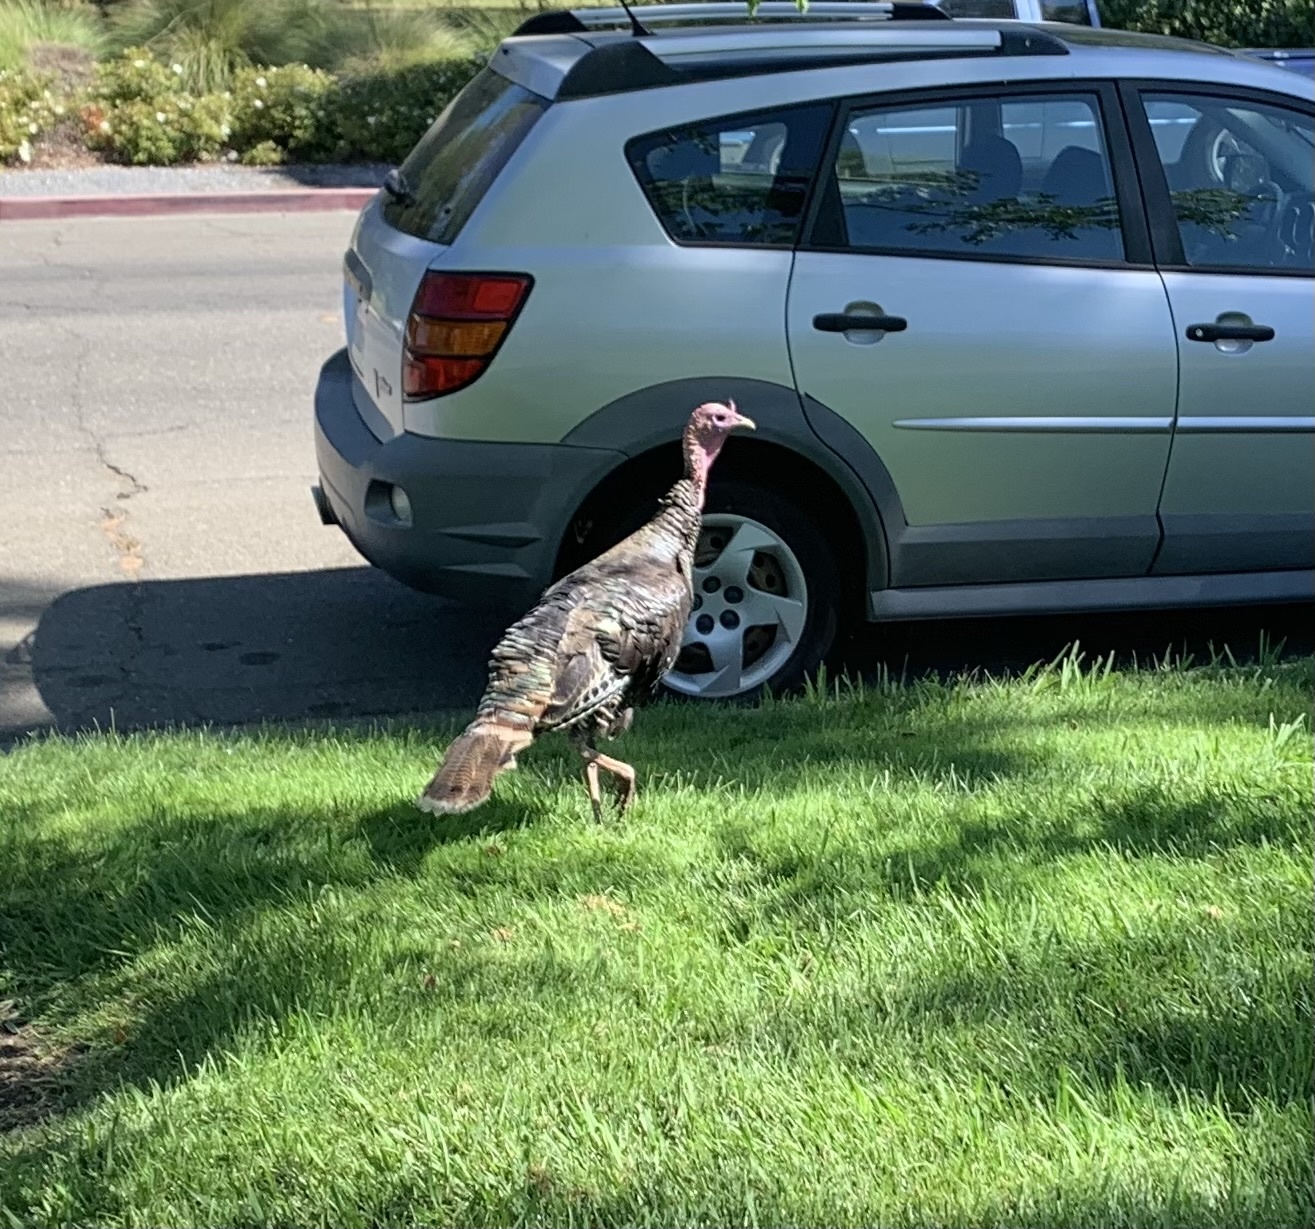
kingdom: Animalia
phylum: Chordata
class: Aves
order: Galliformes
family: Phasianidae
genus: Meleagris
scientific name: Meleagris gallopavo
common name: Wild turkey
